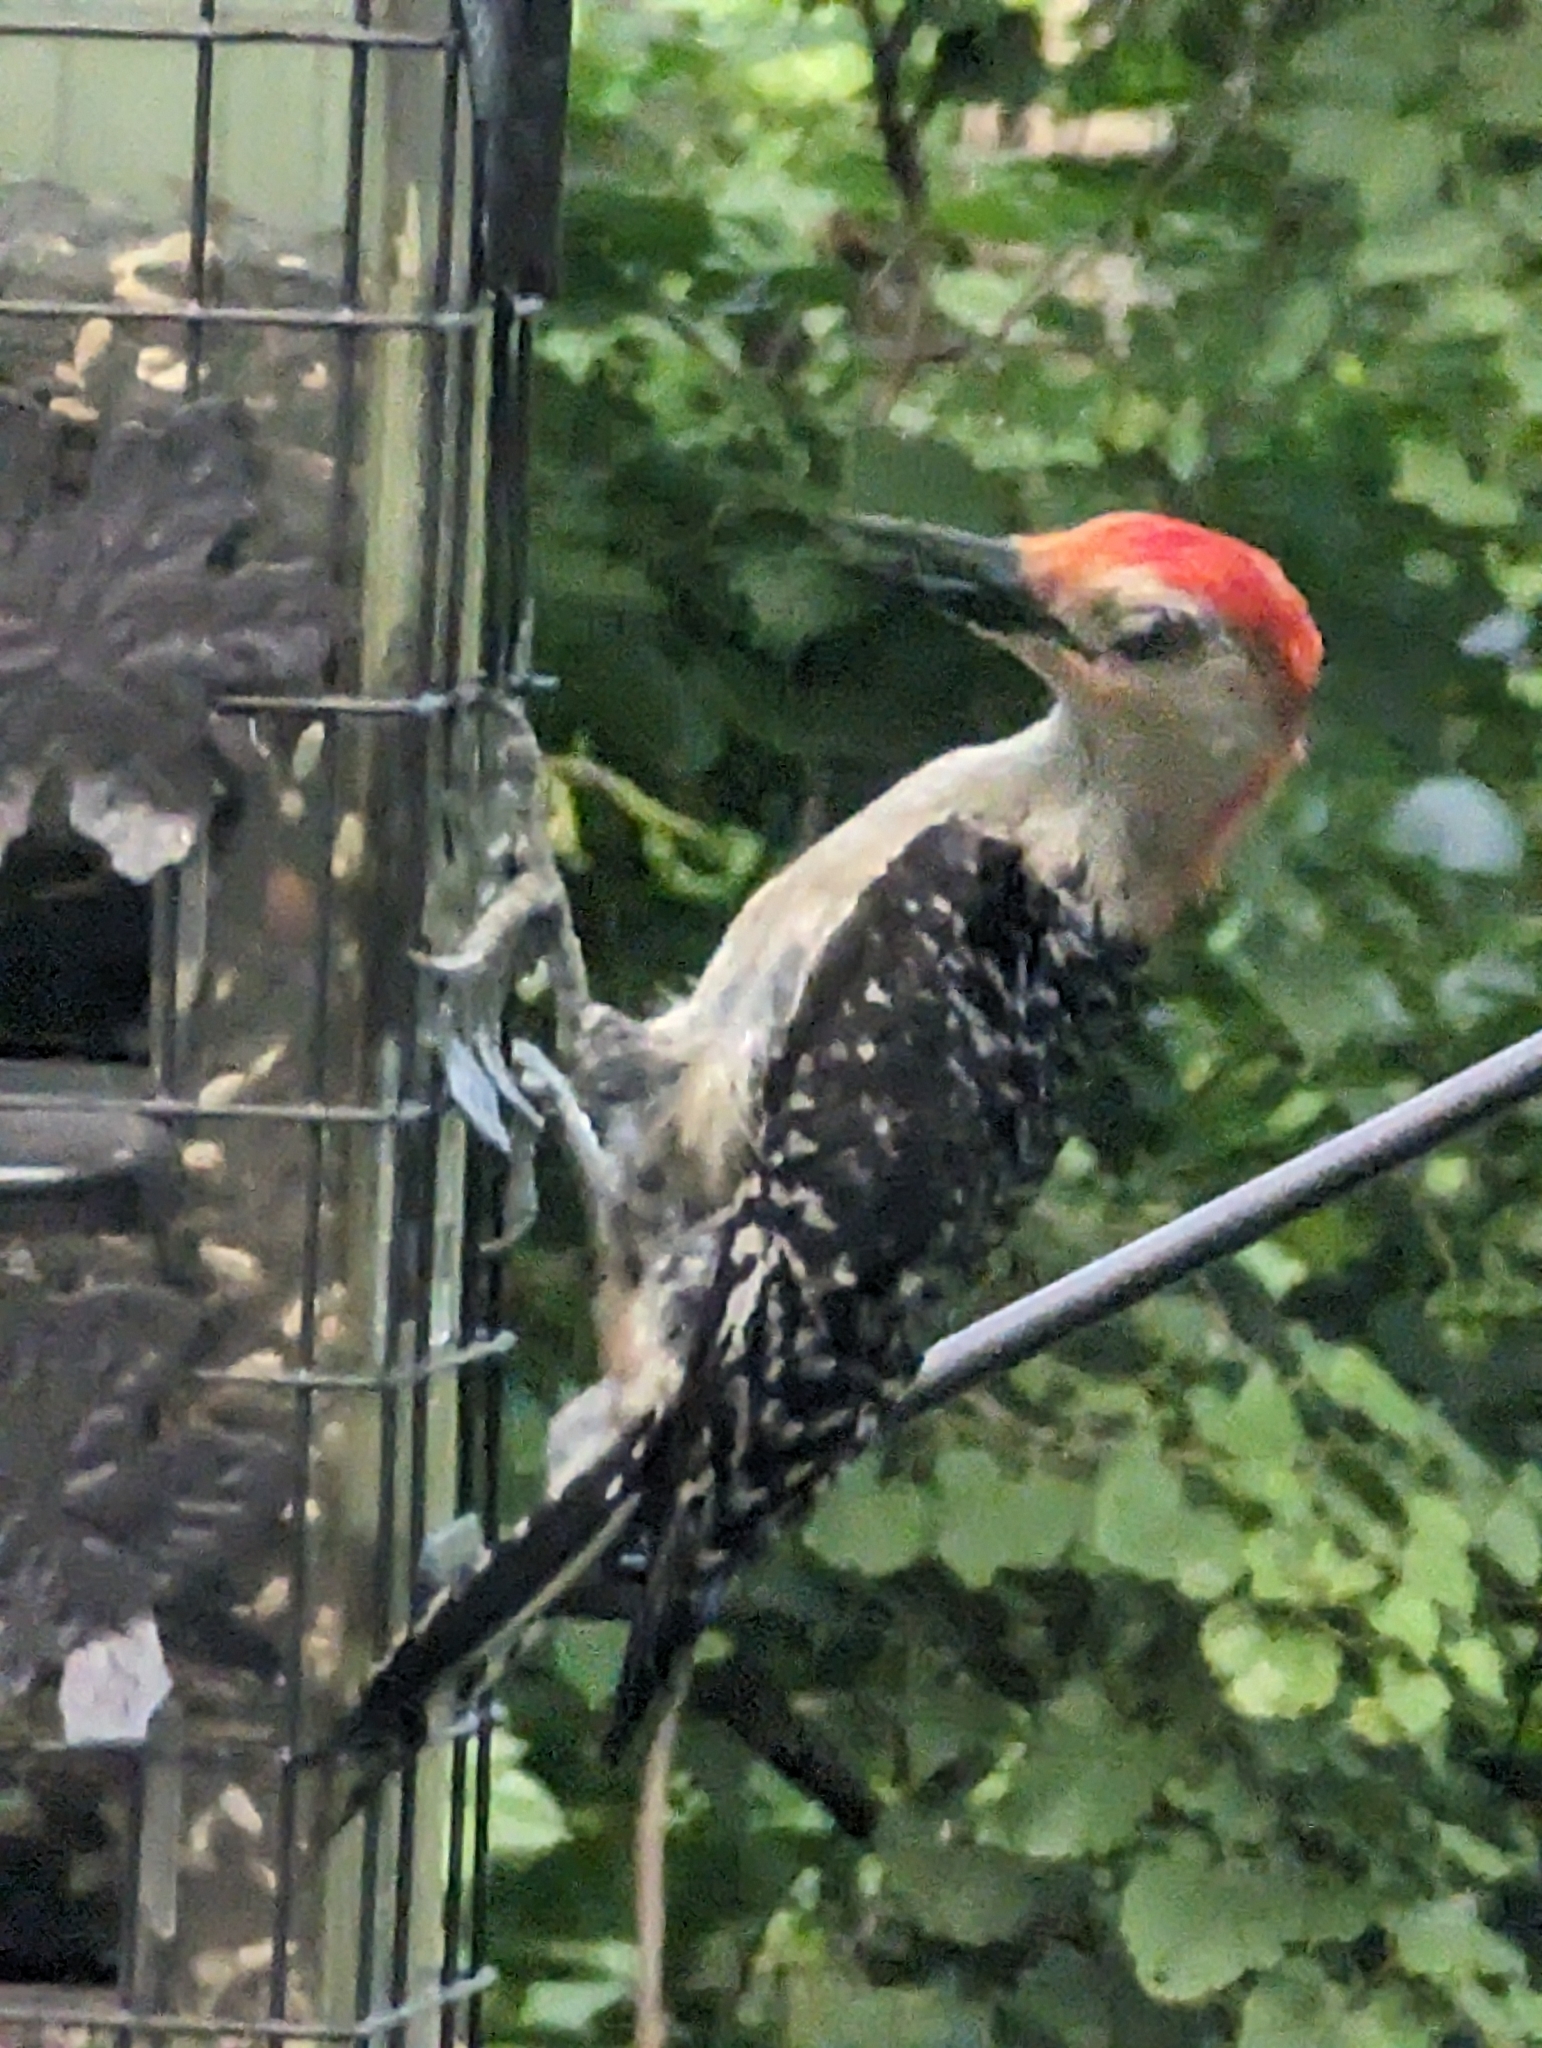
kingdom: Animalia
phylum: Chordata
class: Aves
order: Piciformes
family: Picidae
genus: Melanerpes
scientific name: Melanerpes carolinus
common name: Red-bellied woodpecker
